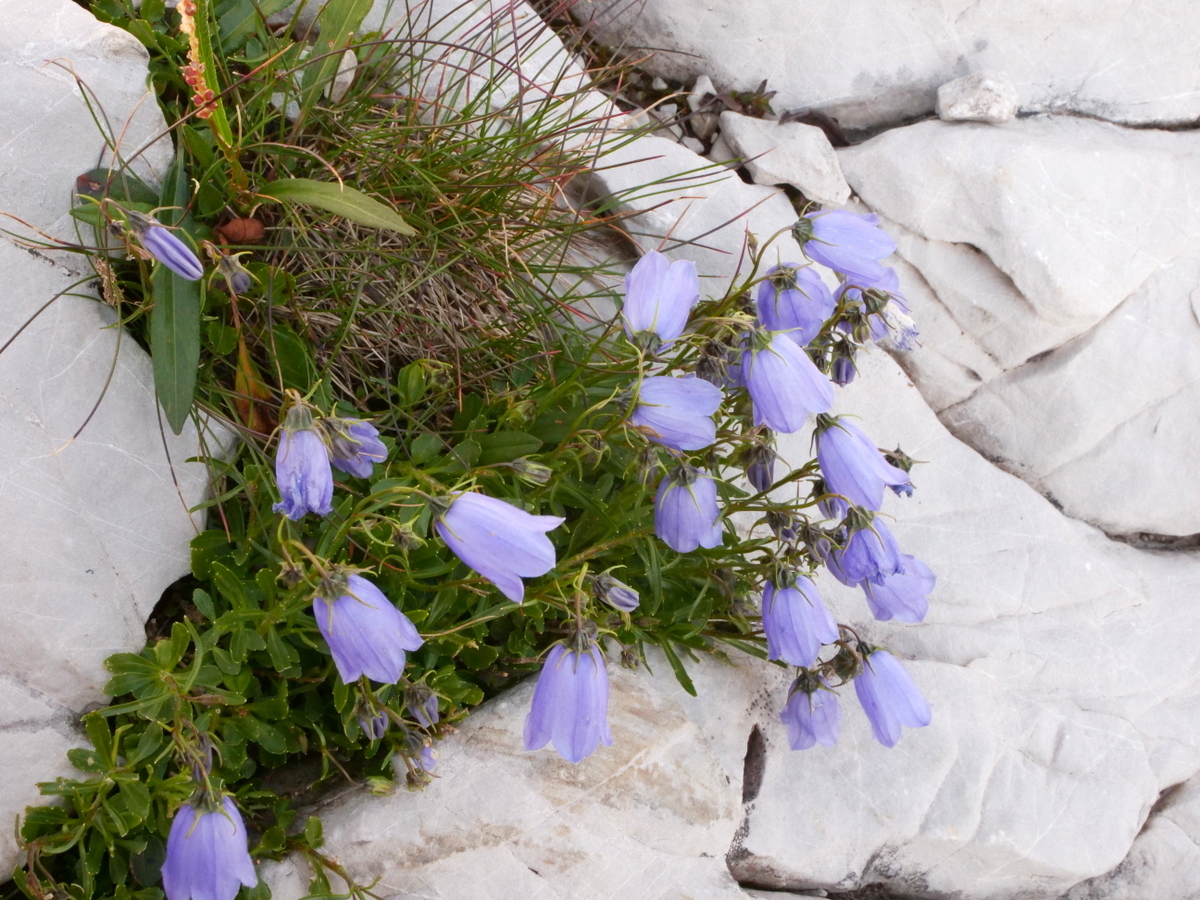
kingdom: Plantae
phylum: Tracheophyta
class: Magnoliopsida
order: Asterales
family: Campanulaceae
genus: Campanula
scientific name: Campanula cochleariifolia
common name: Fairies'-thimbles
